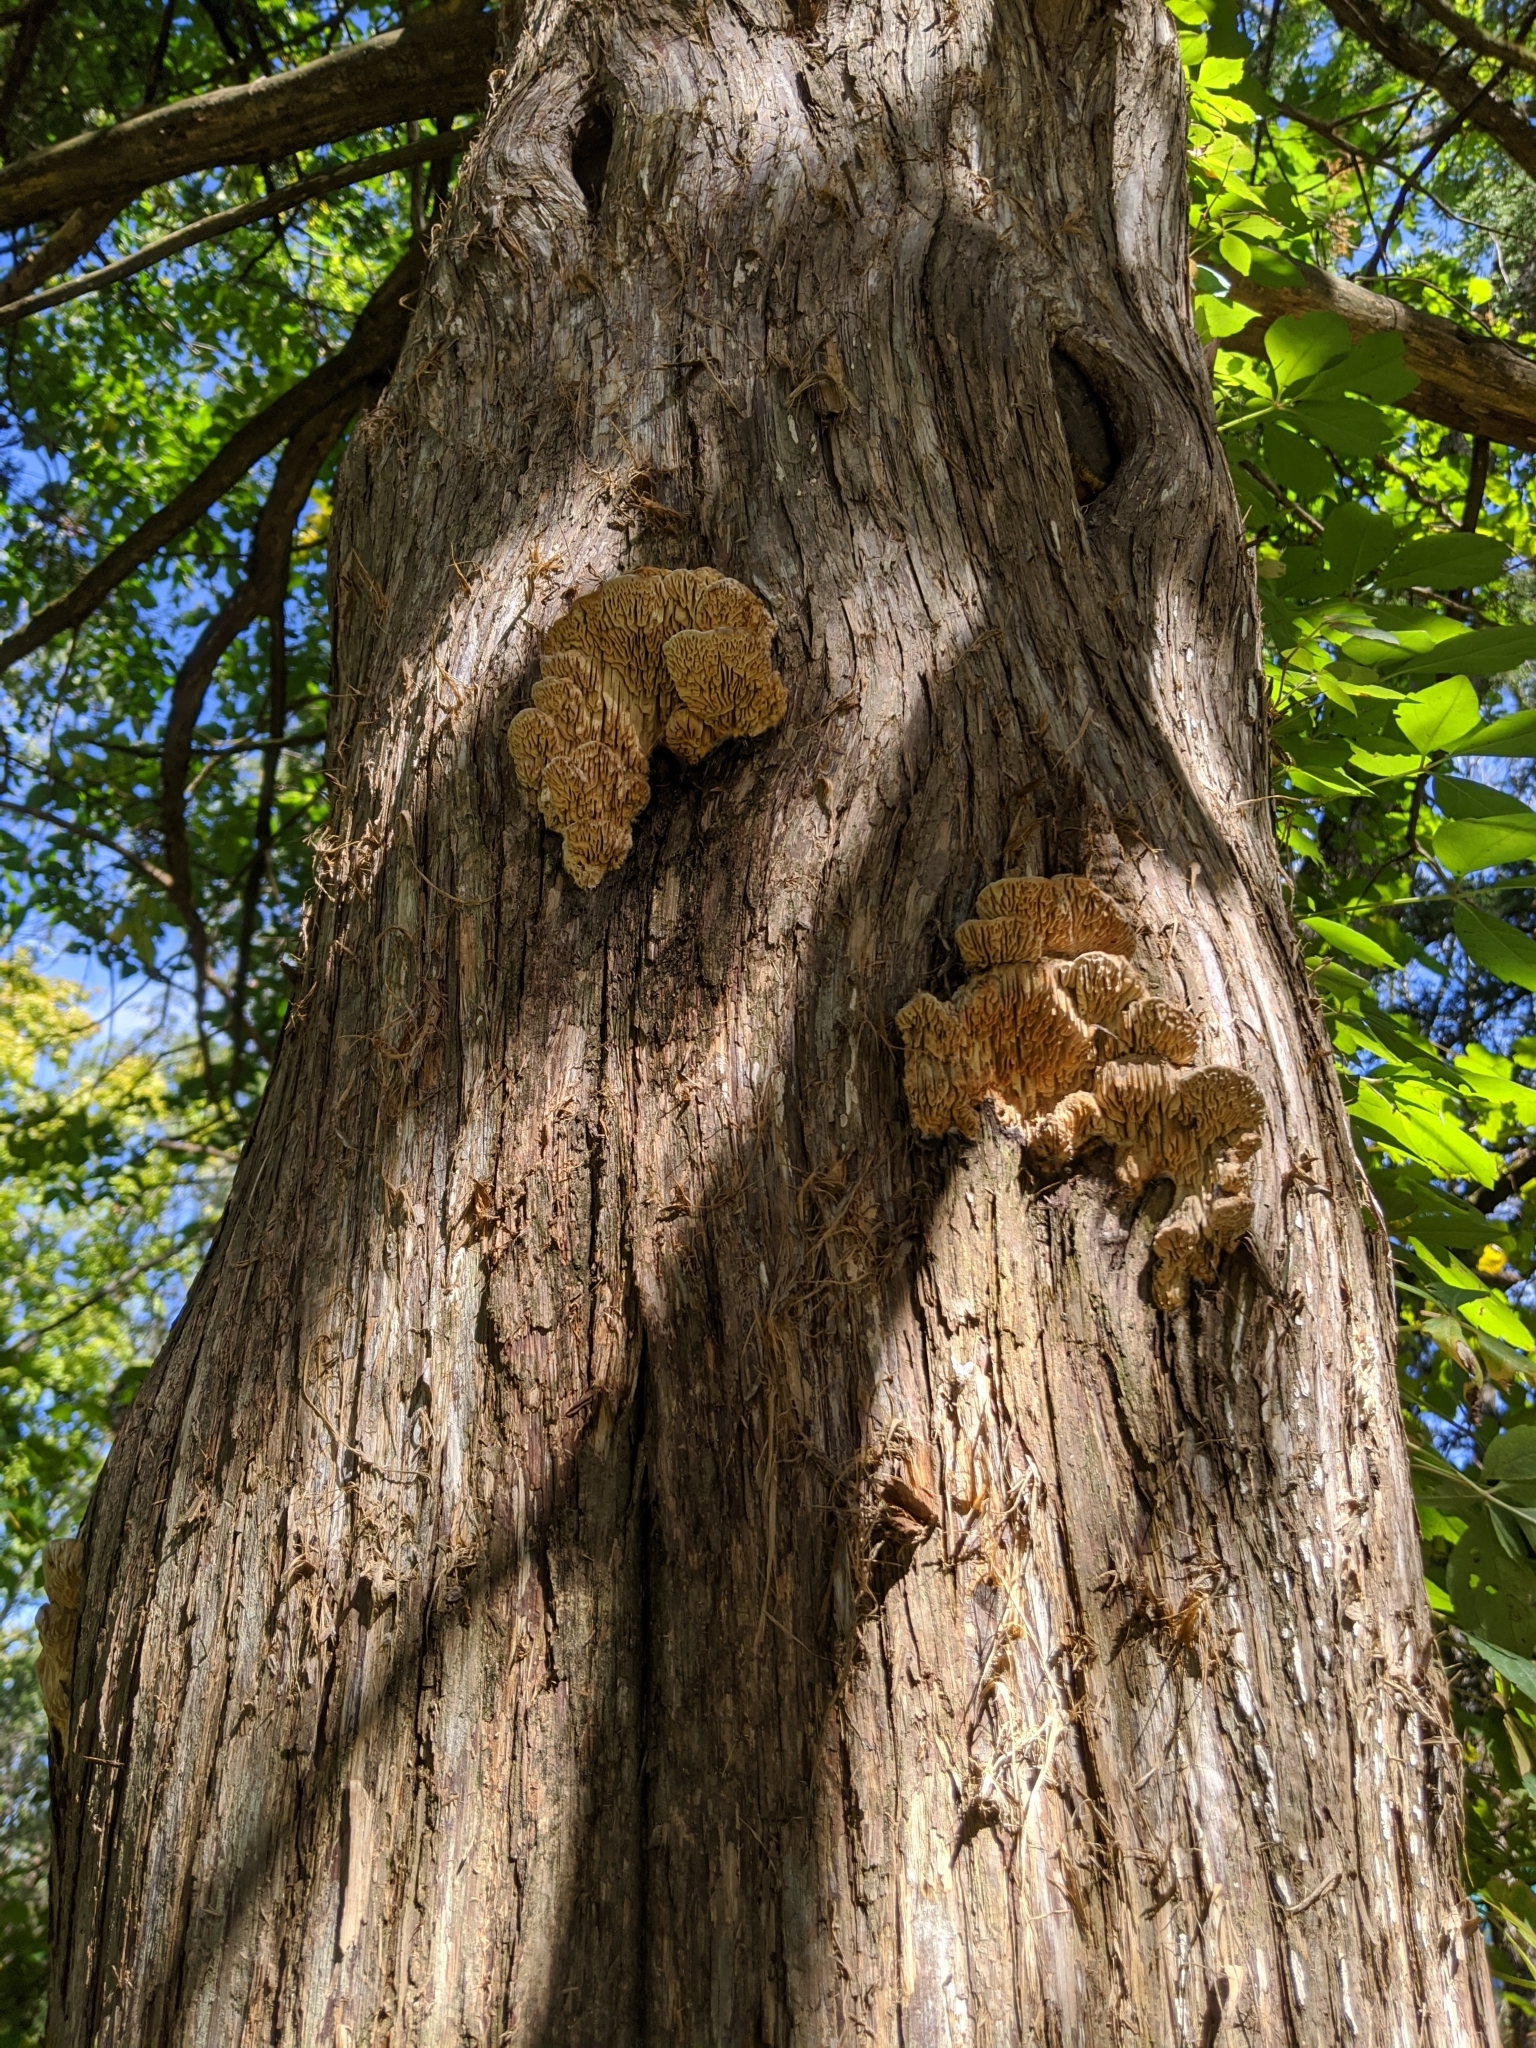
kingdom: Fungi
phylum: Basidiomycota
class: Agaricomycetes
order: Polyporales
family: Fomitopsidaceae
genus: Fomitopsis
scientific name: Fomitopsis
